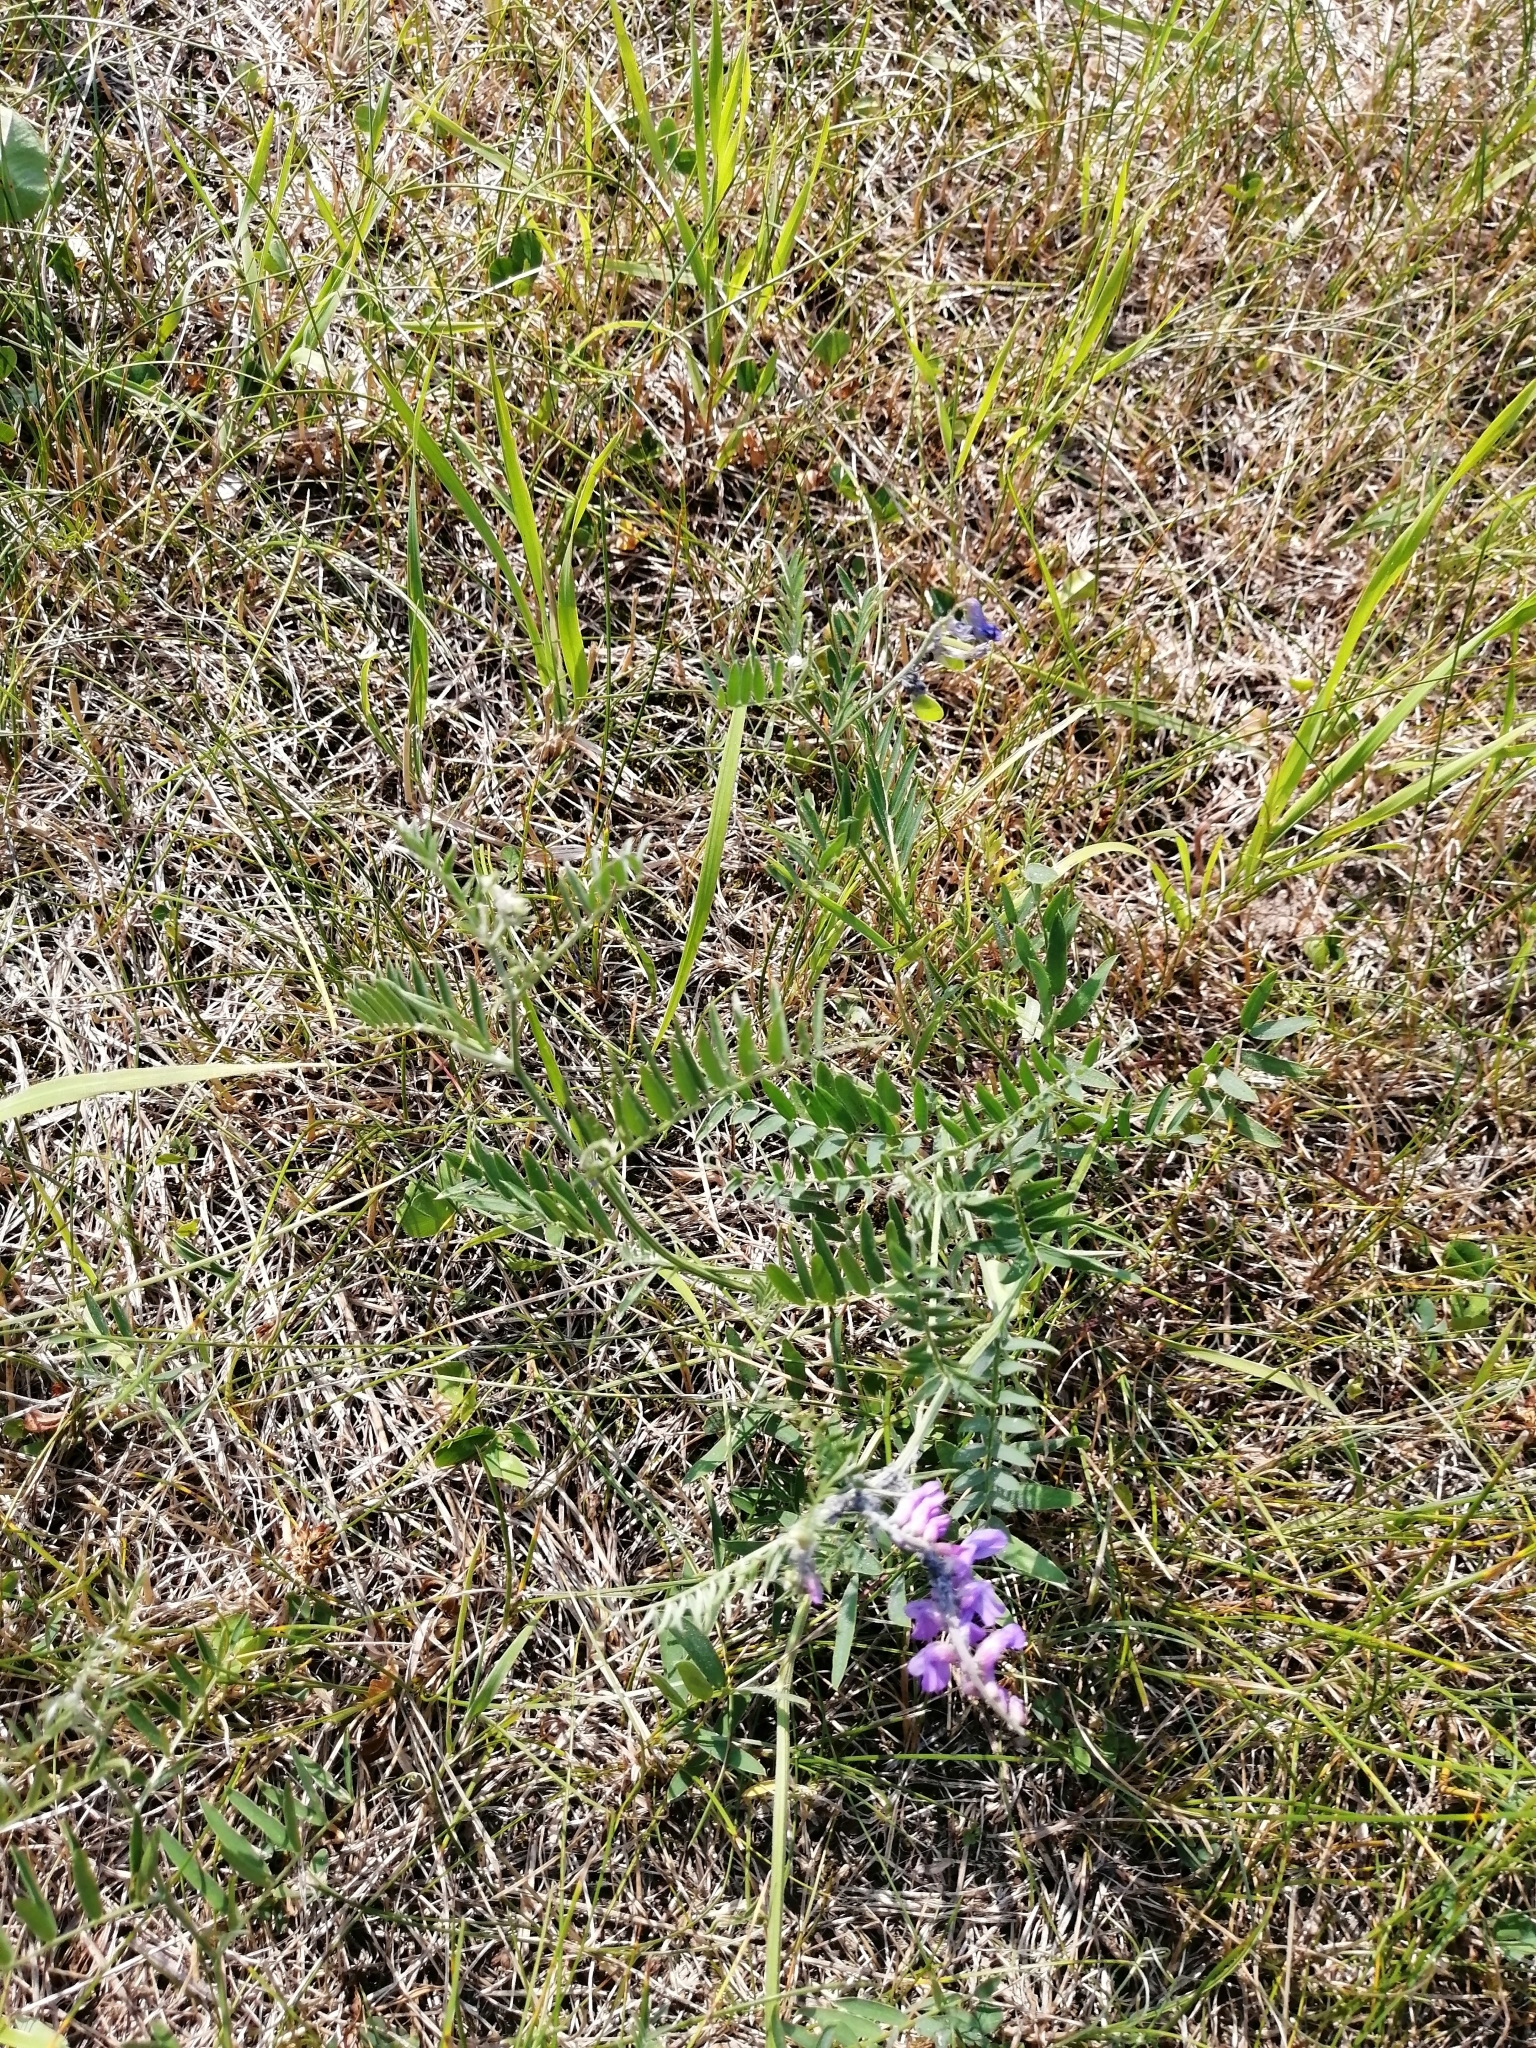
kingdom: Plantae
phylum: Tracheophyta
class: Magnoliopsida
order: Fabales
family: Fabaceae
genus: Vicia
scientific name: Vicia cracca
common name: Bird vetch
